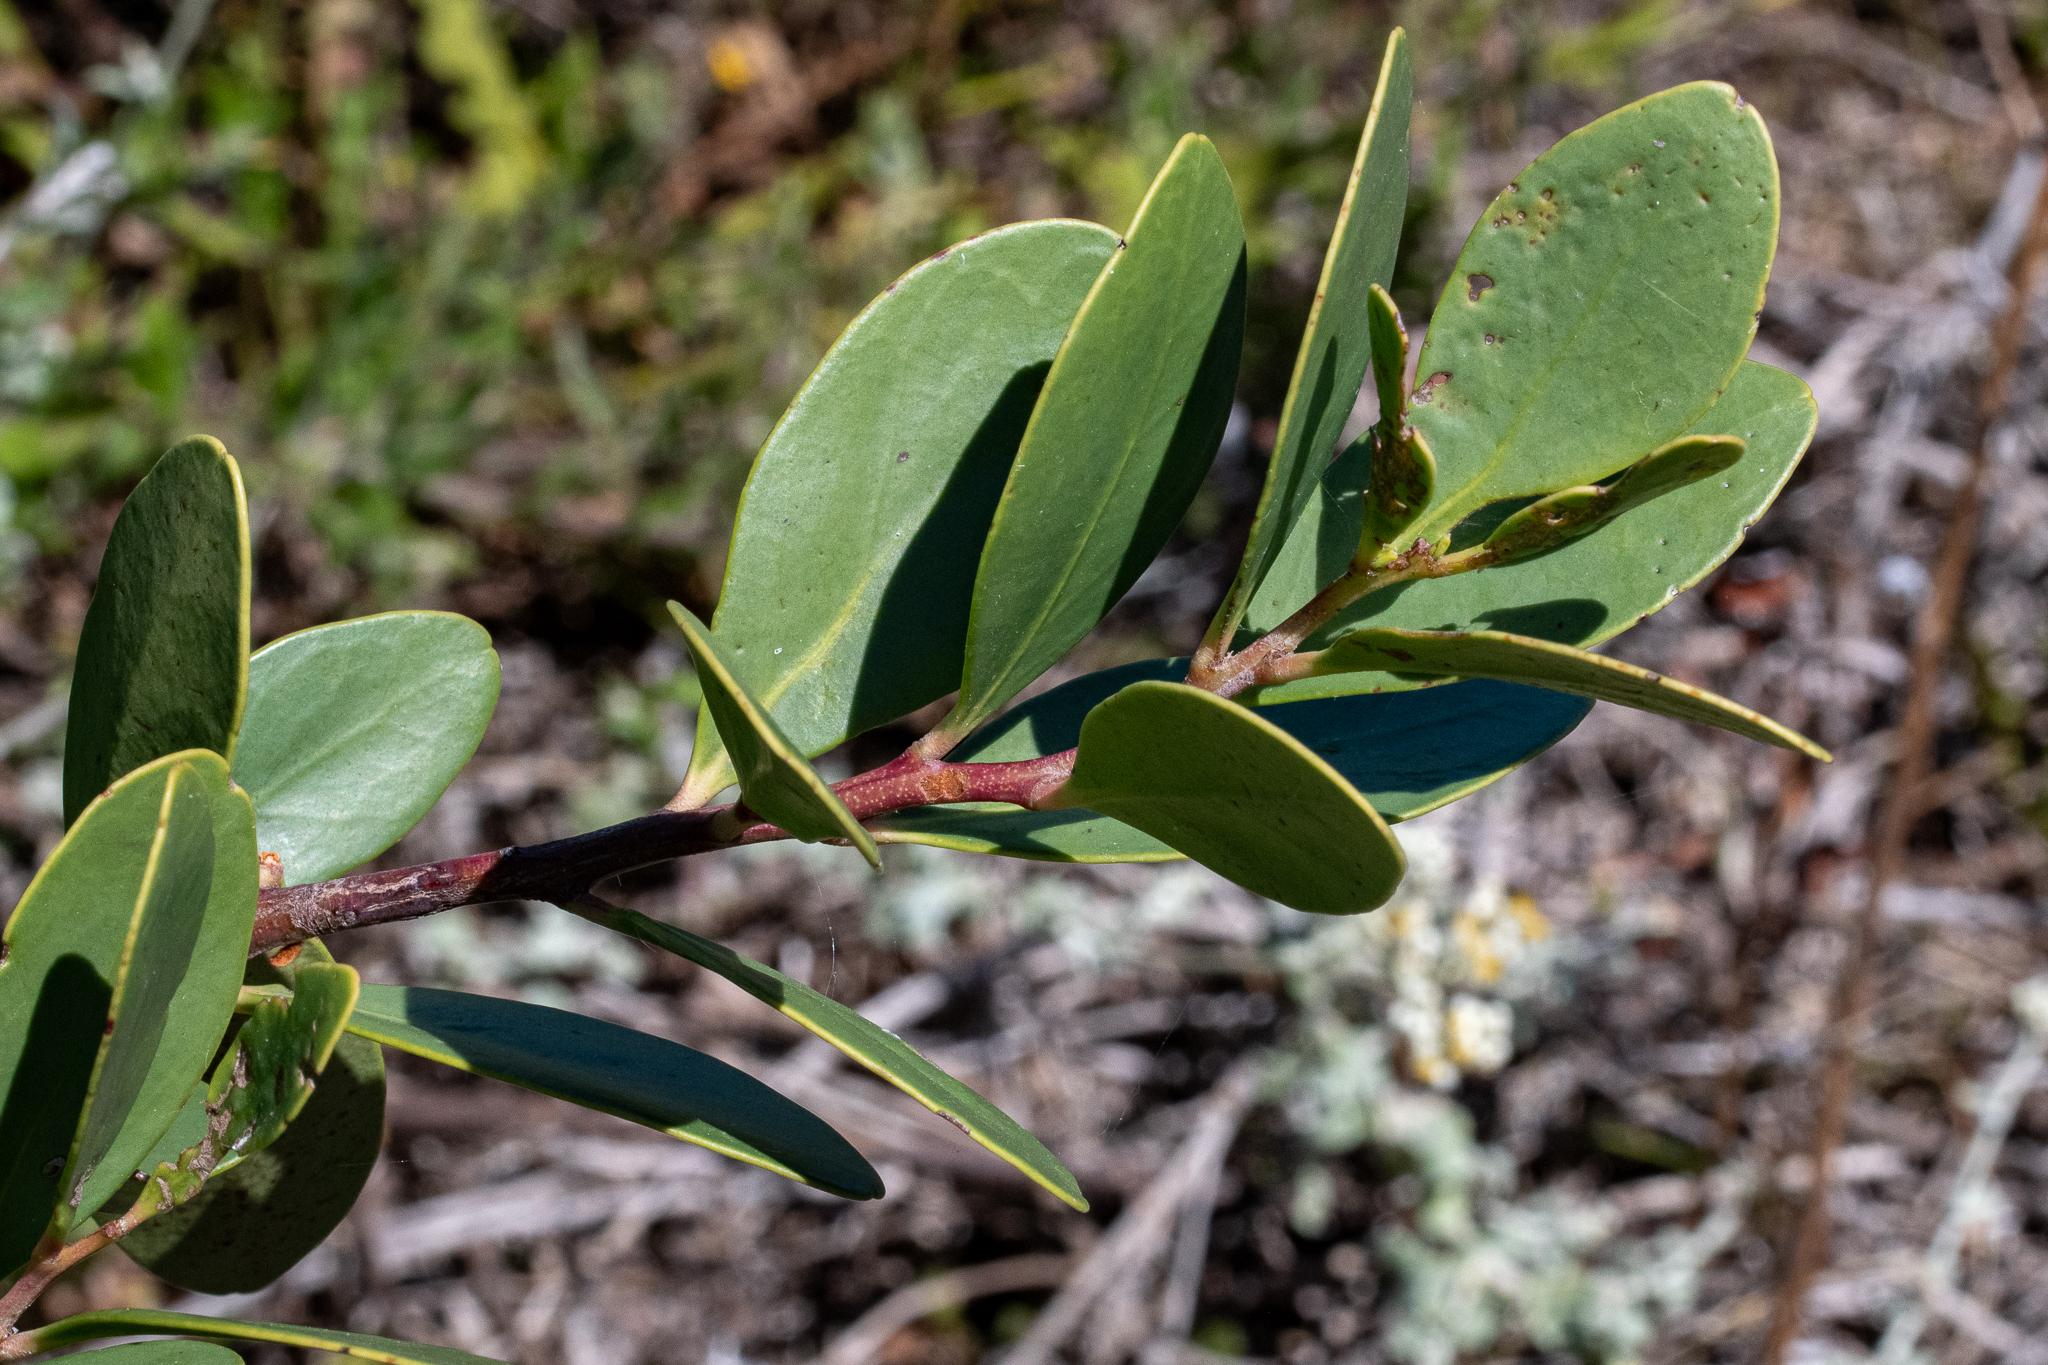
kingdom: Plantae
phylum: Tracheophyta
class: Magnoliopsida
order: Celastrales
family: Celastraceae
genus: Pterocelastrus
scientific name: Pterocelastrus tricuspidatus
